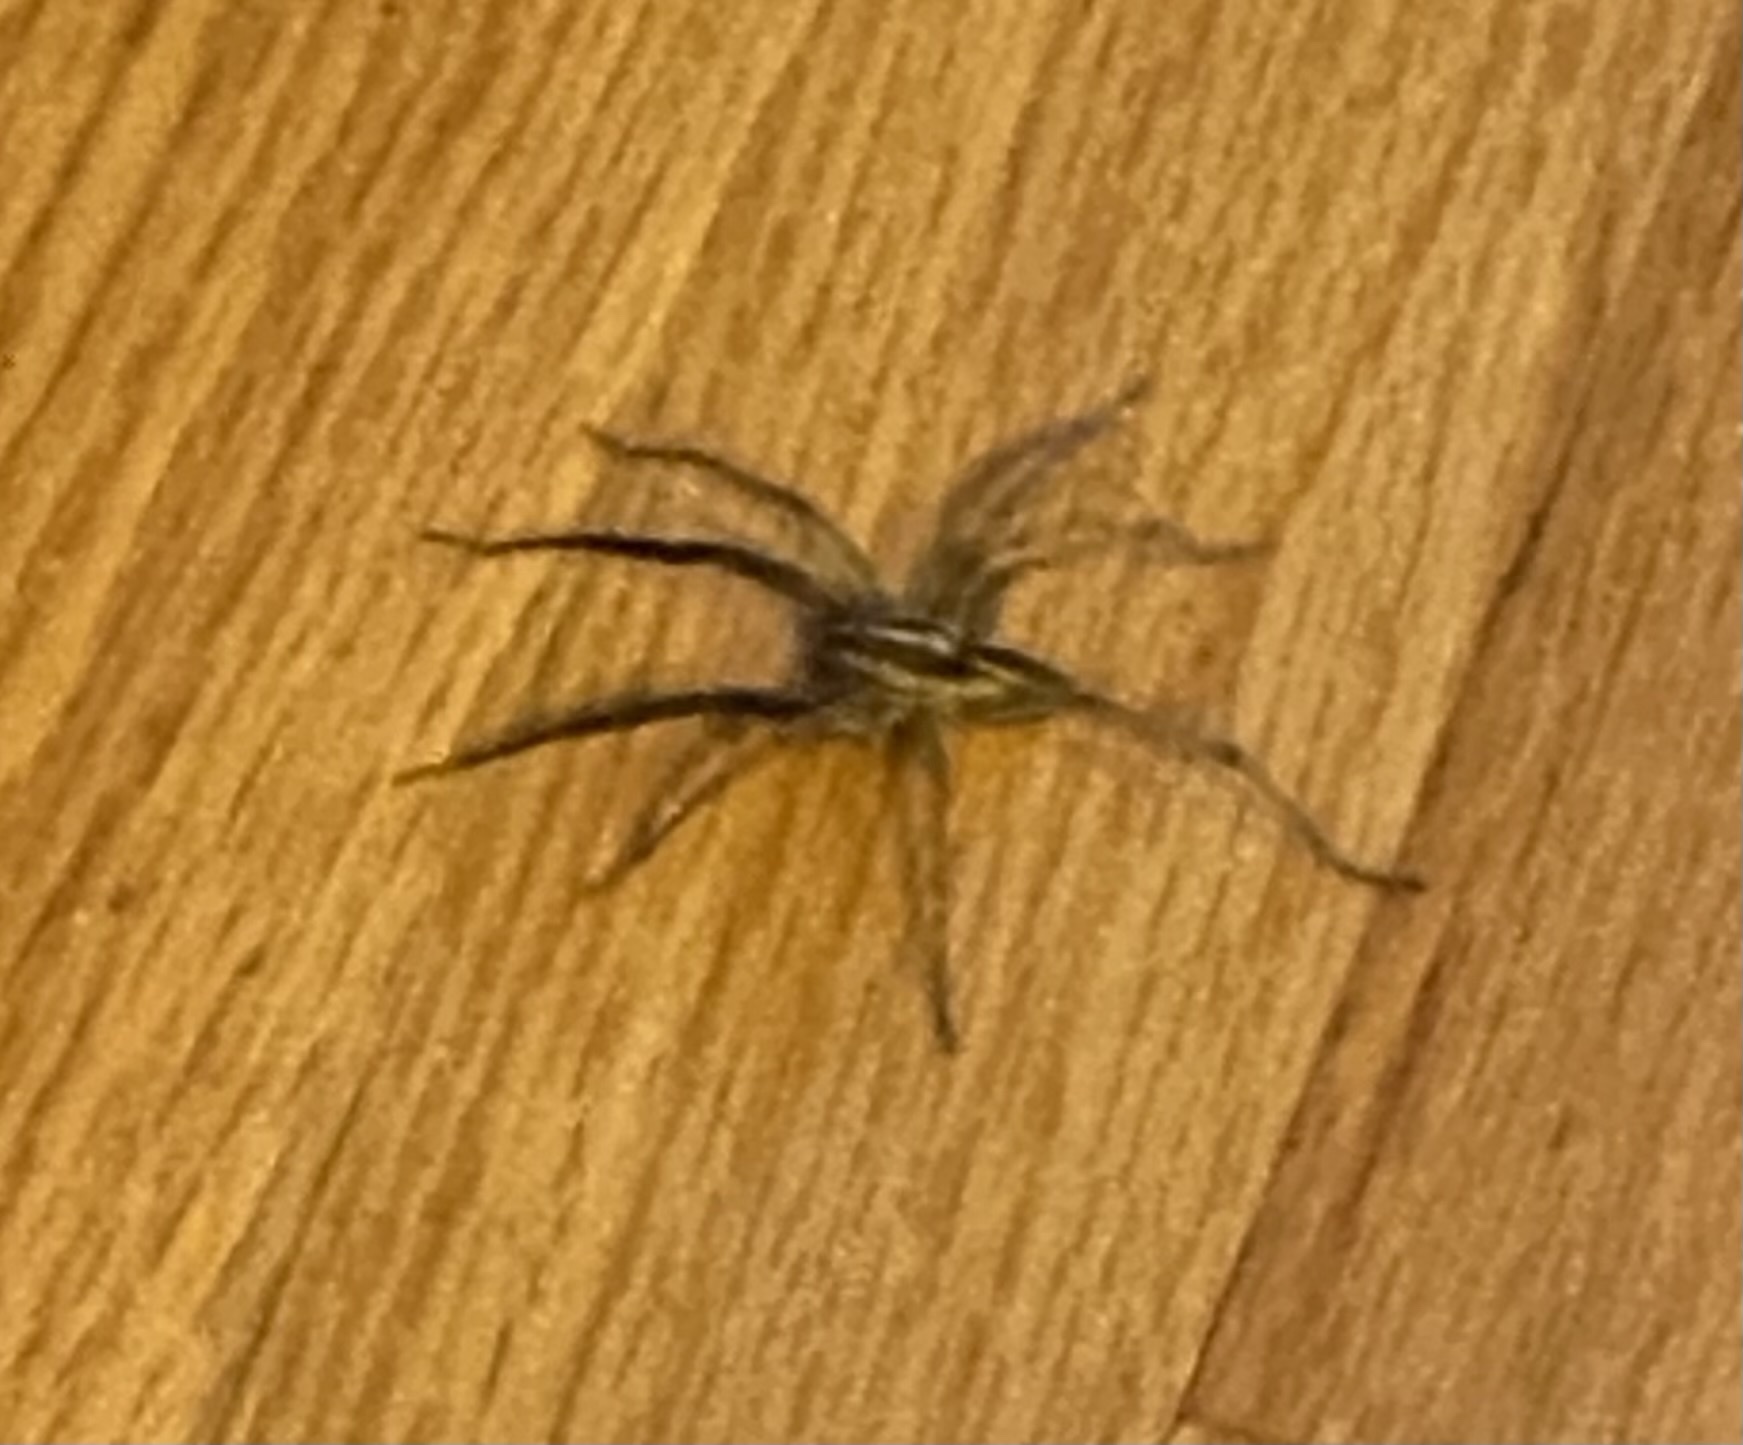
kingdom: Animalia
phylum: Arthropoda
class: Arachnida
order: Araneae
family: Lycosidae
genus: Rabidosa
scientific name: Rabidosa rabida
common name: Rabid wolf spider
